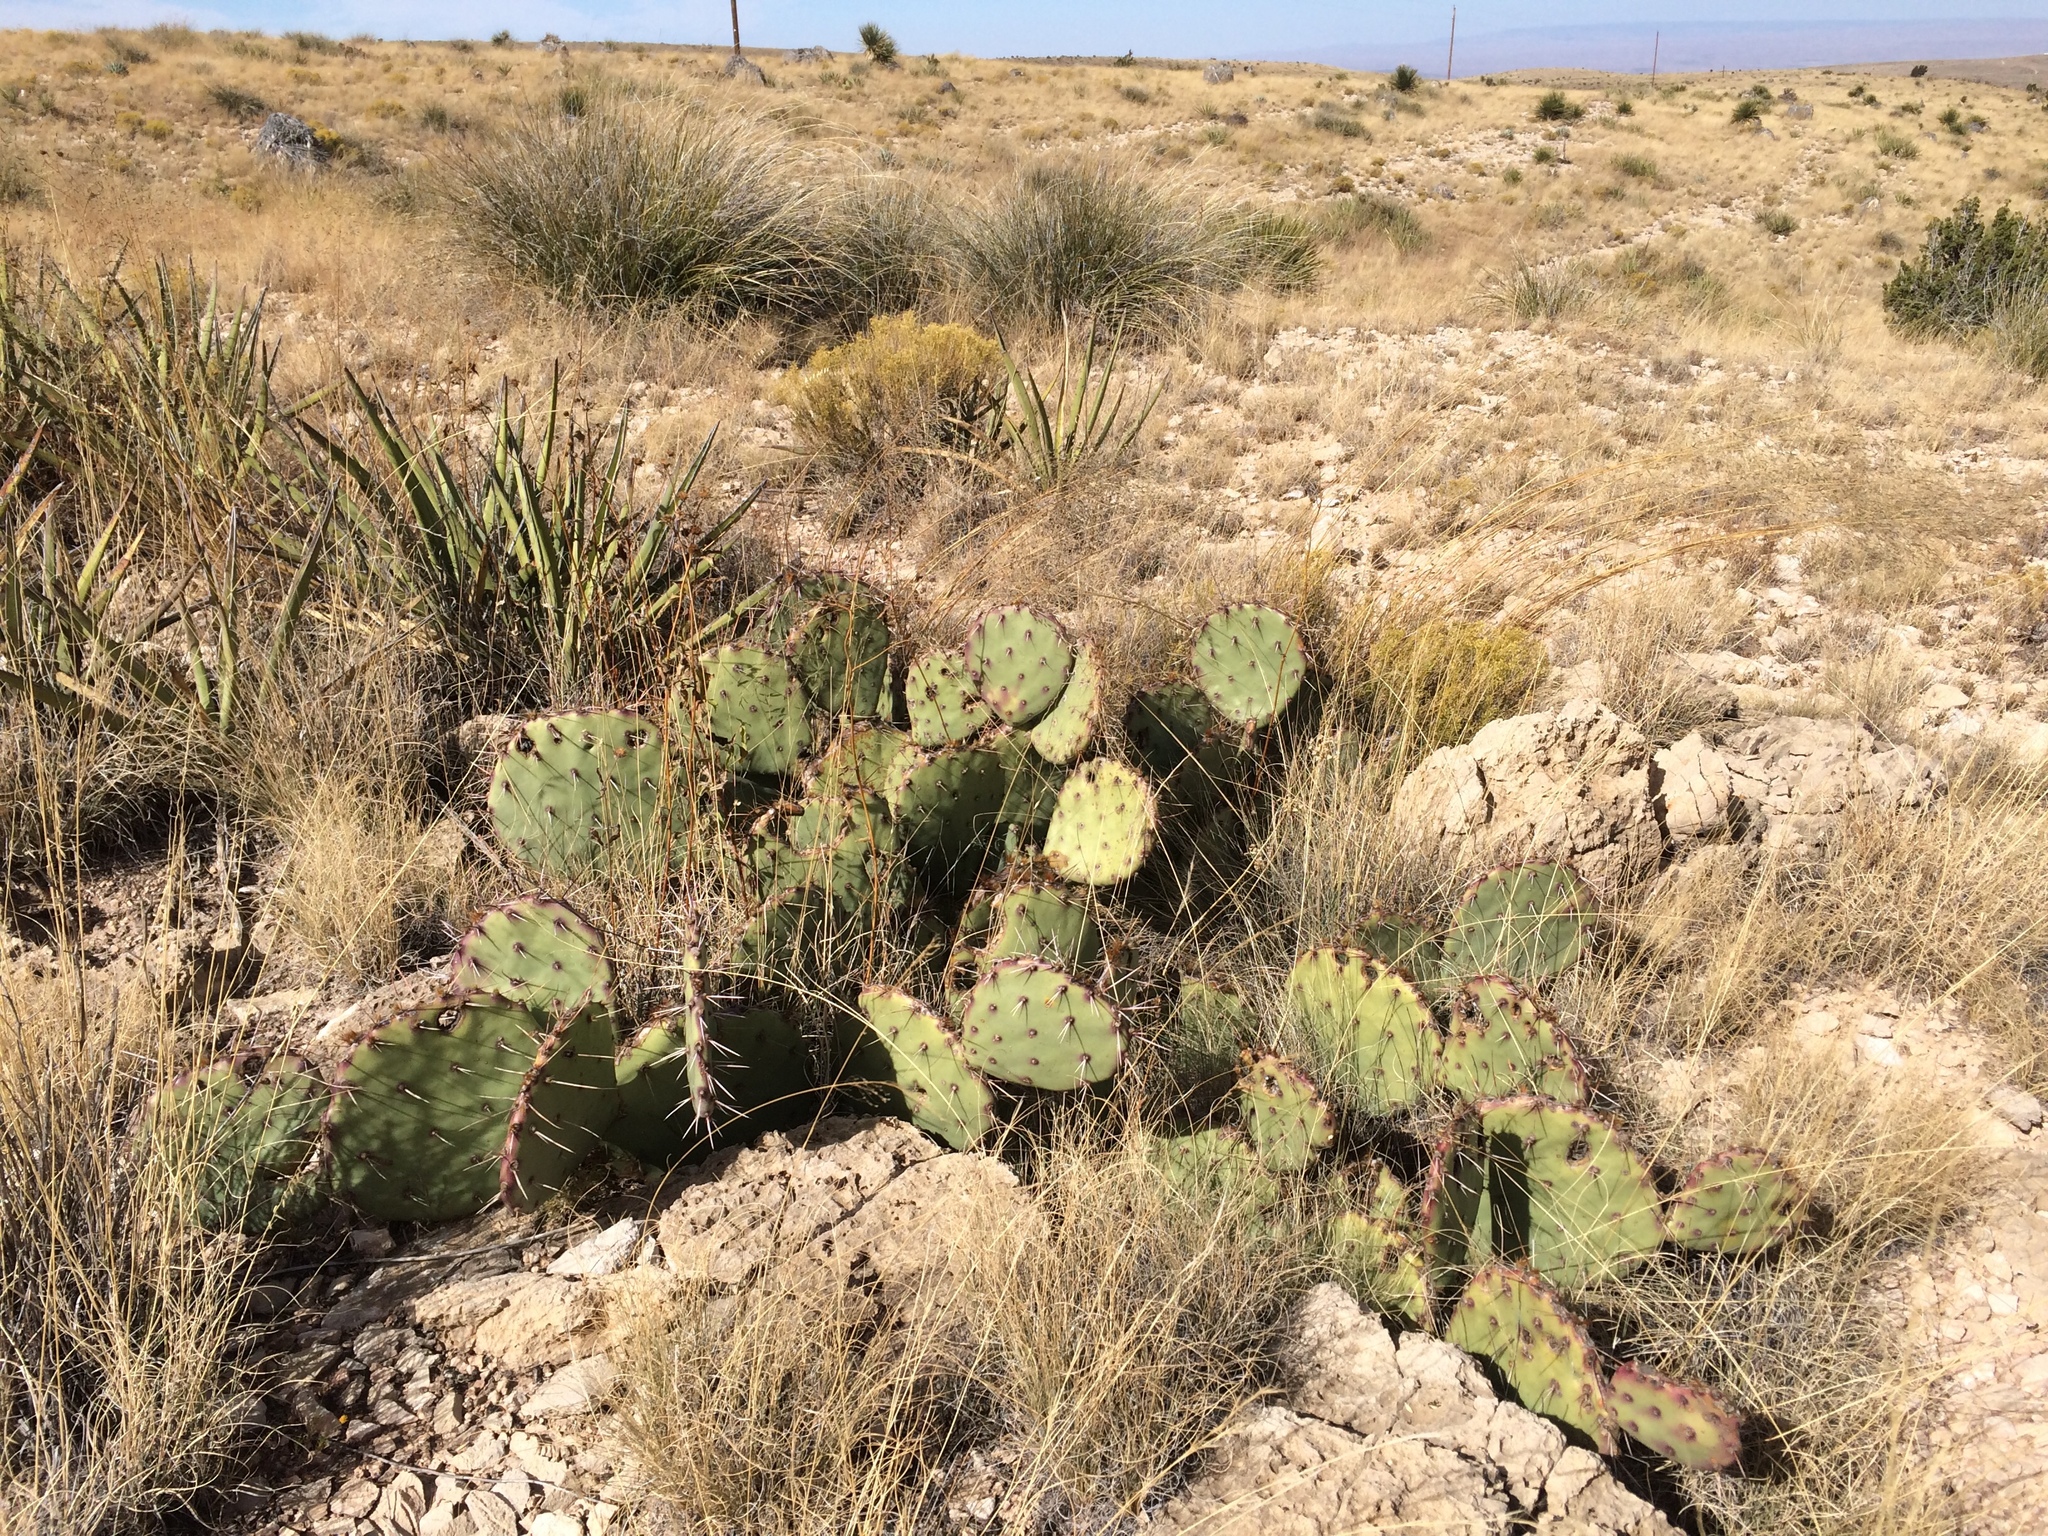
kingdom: Plantae
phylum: Tracheophyta
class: Magnoliopsida
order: Caryophyllales
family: Cactaceae
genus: Opuntia
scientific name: Opuntia phaeacantha
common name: New mexico prickly-pear
